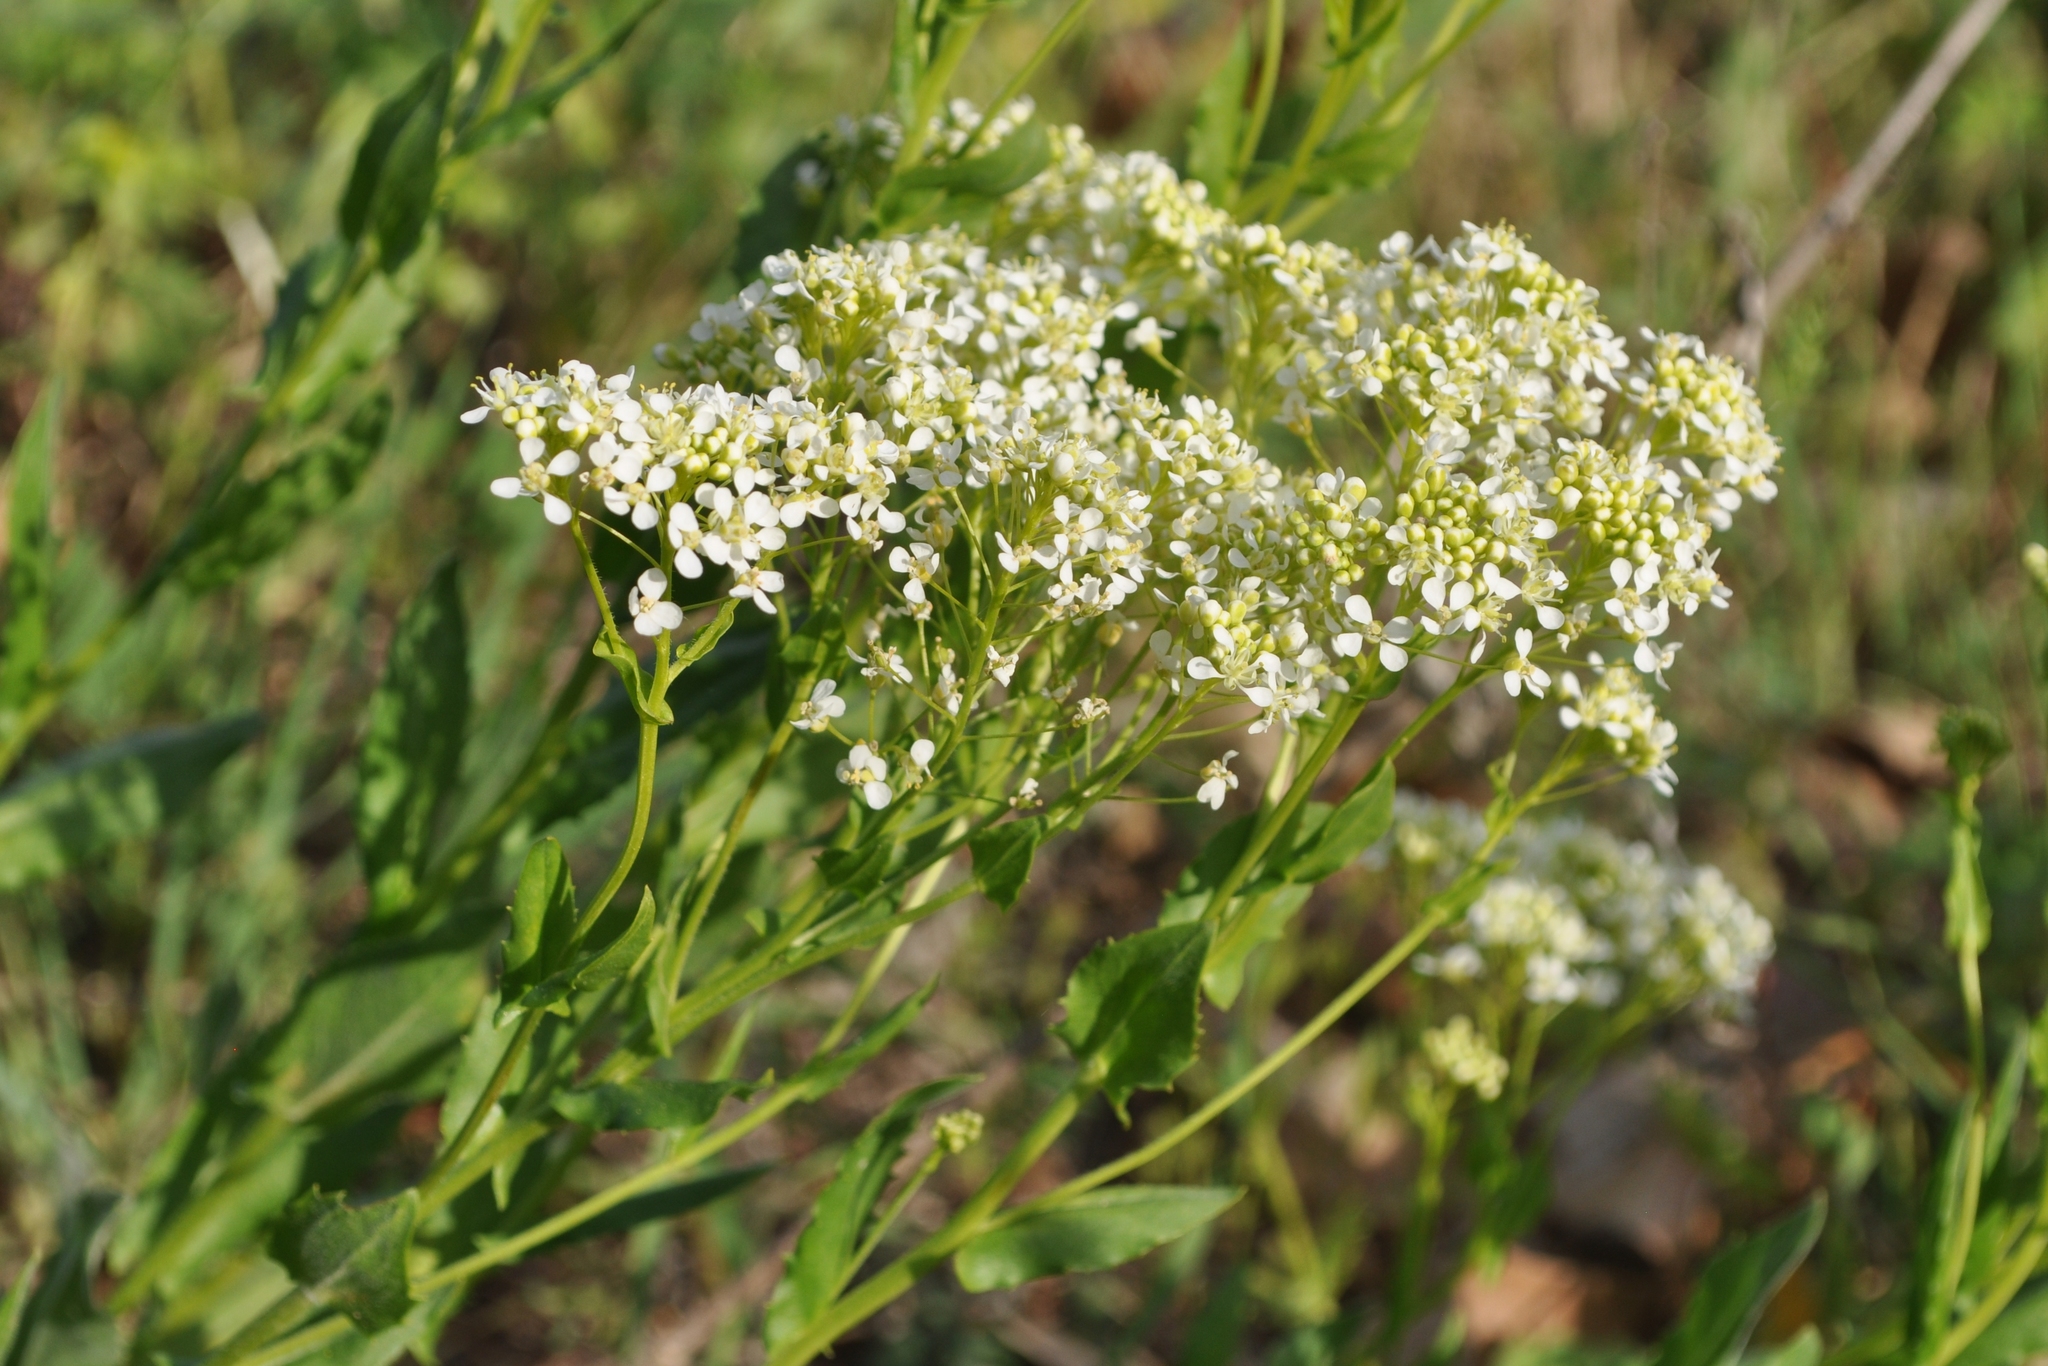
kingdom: Plantae
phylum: Tracheophyta
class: Magnoliopsida
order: Brassicales
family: Brassicaceae
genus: Lepidium
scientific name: Lepidium draba
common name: Hoary cress
